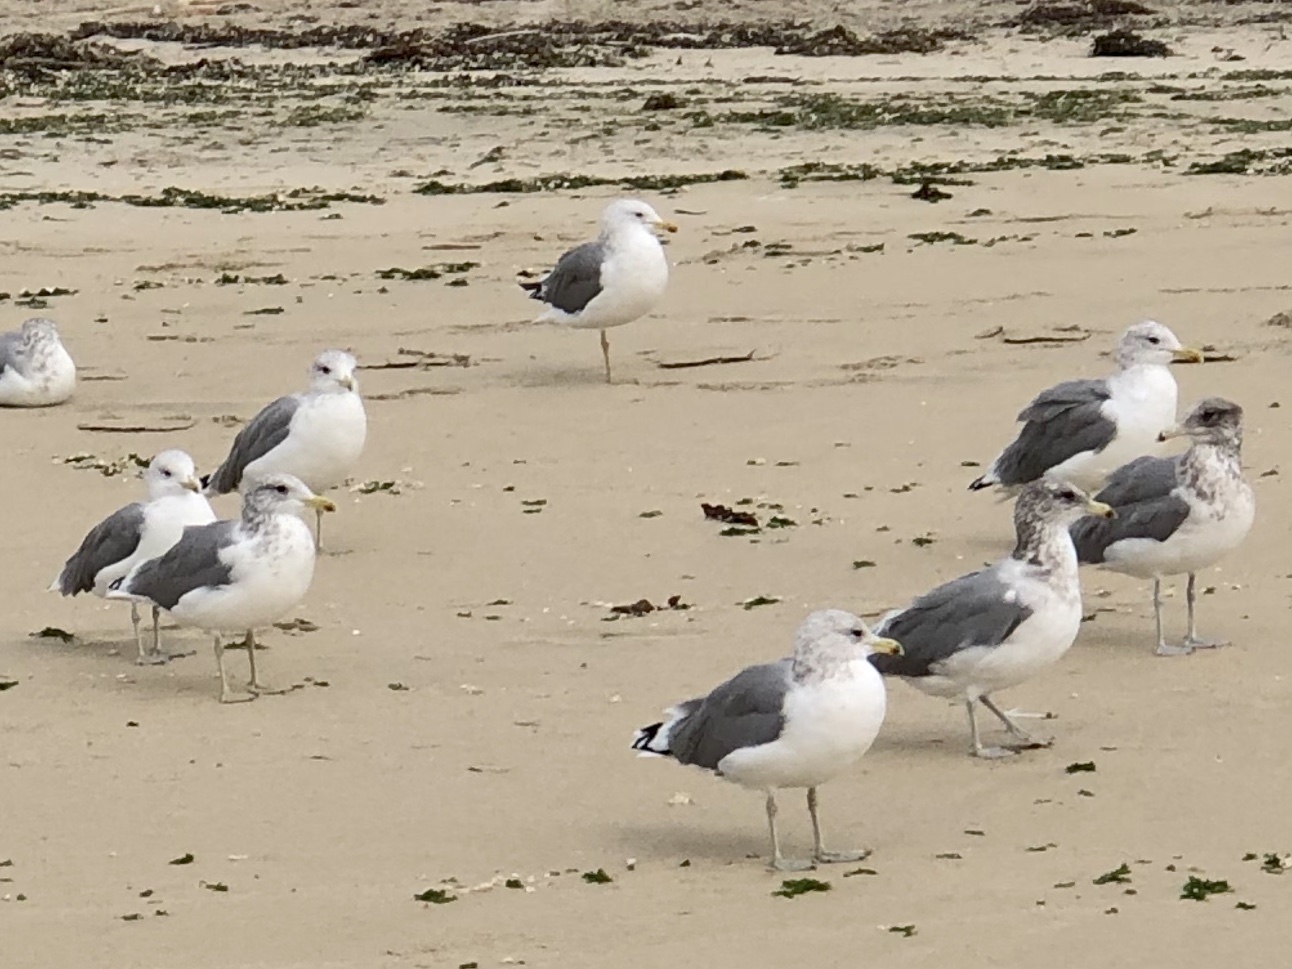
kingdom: Animalia
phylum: Chordata
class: Aves
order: Charadriiformes
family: Laridae
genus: Larus
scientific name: Larus californicus
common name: California gull
